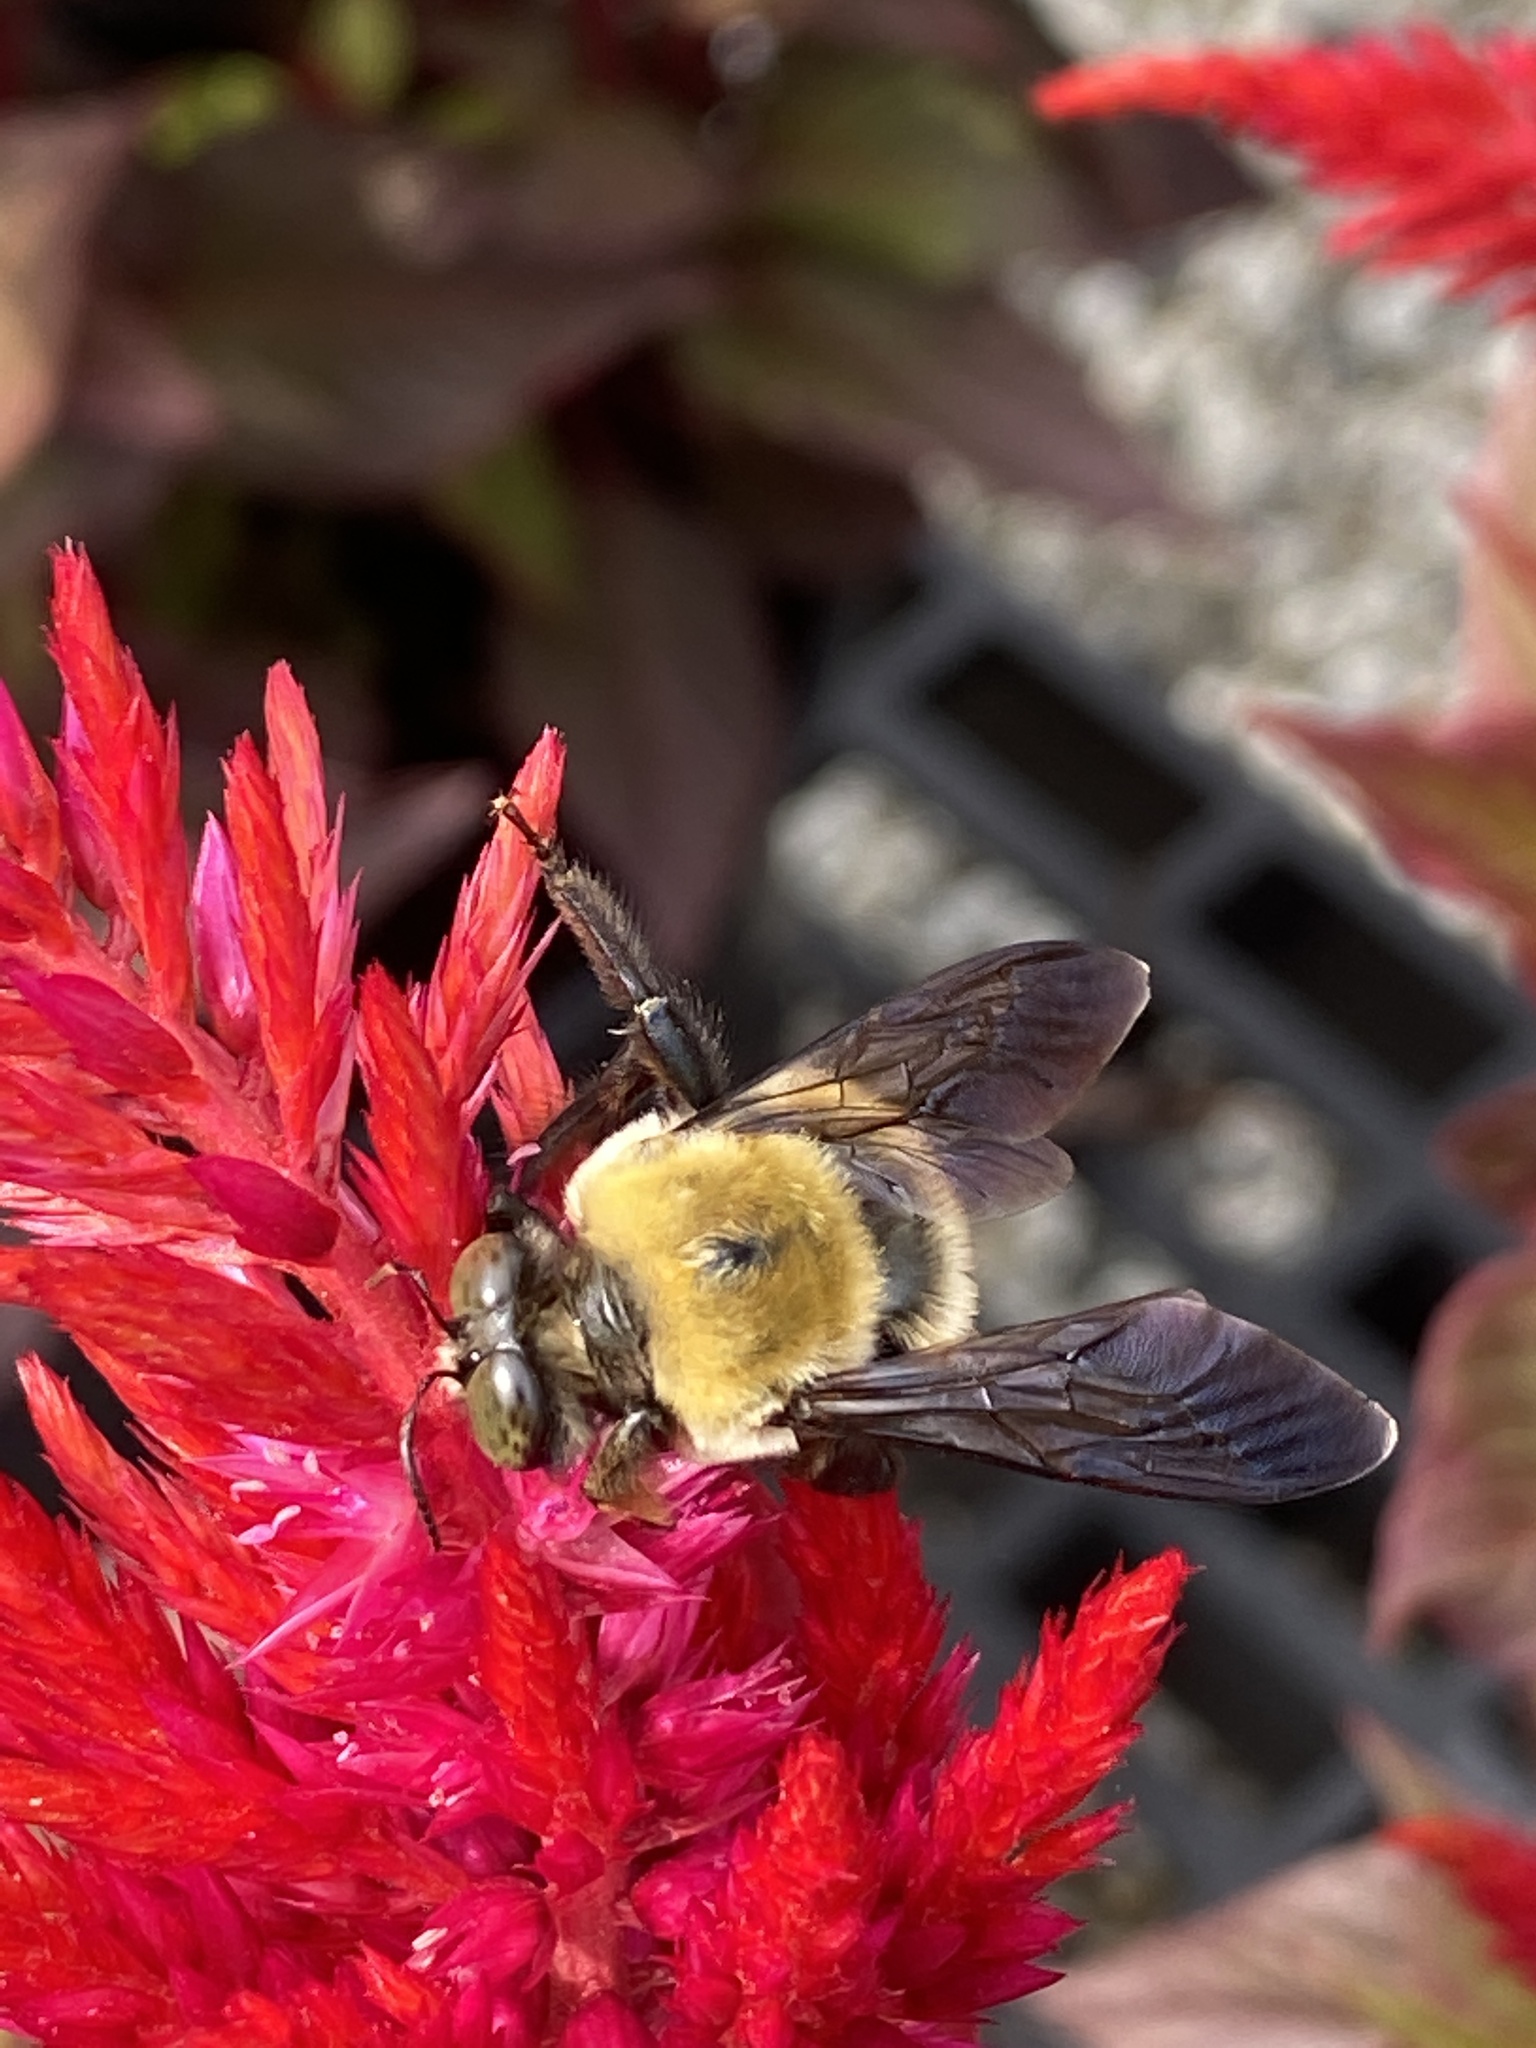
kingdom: Animalia
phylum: Arthropoda
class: Insecta
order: Hymenoptera
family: Apidae
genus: Xylocopa
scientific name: Xylocopa virginica
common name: Carpenter bee
